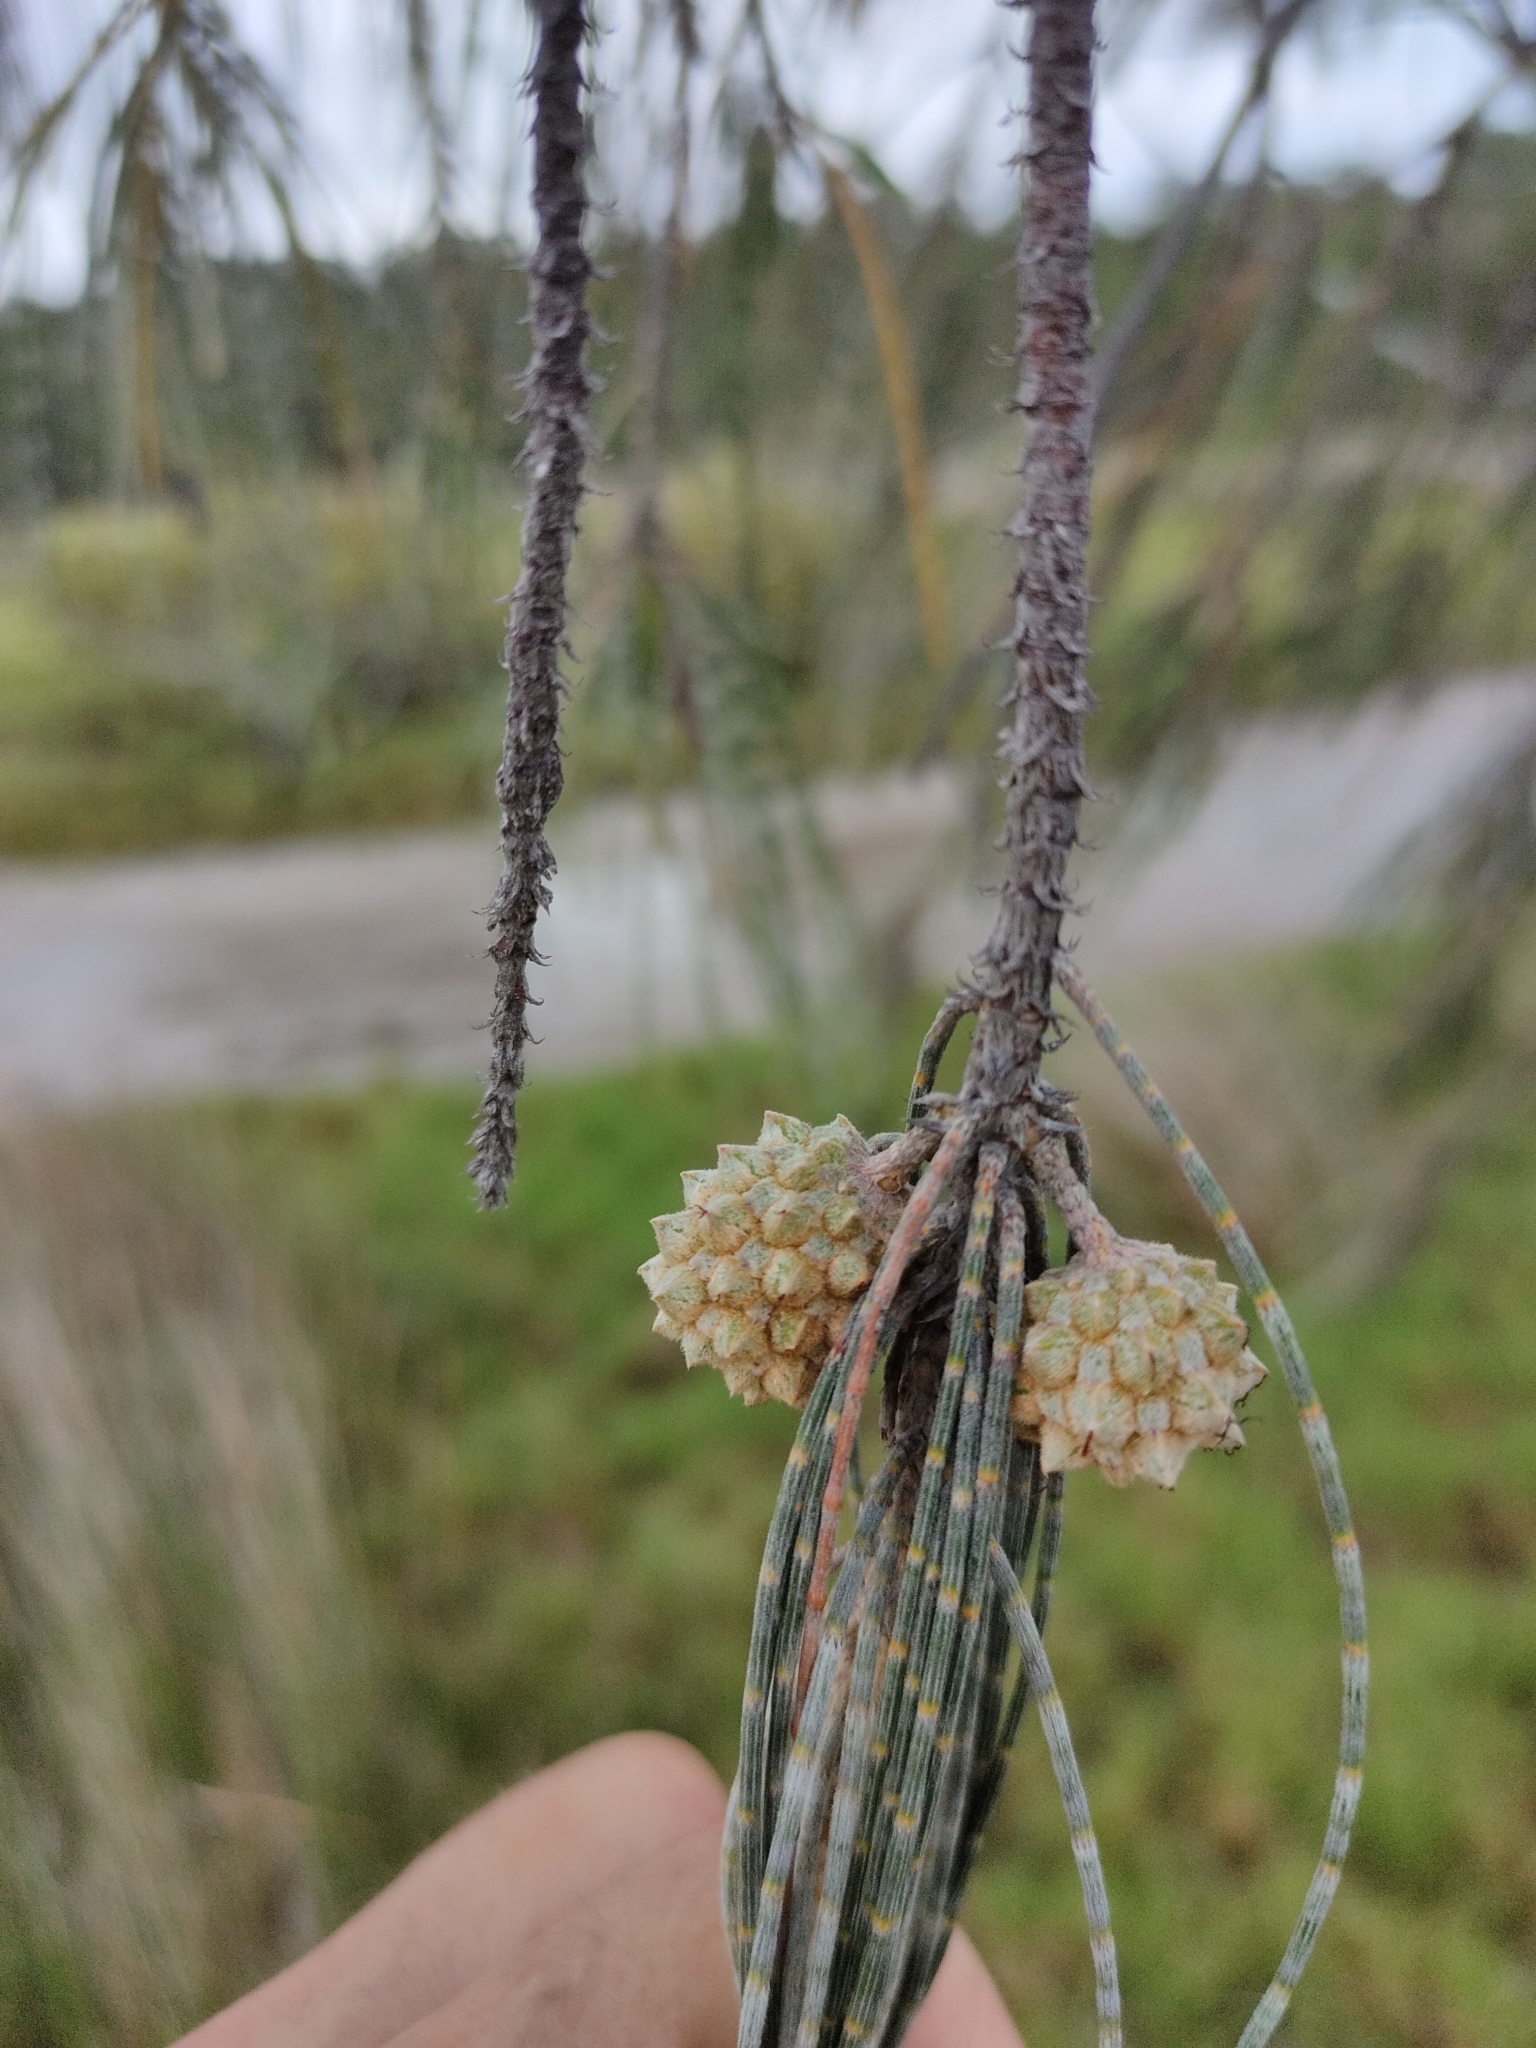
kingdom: Plantae
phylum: Tracheophyta
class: Magnoliopsida
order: Fagales
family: Casuarinaceae
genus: Casuarina
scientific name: Casuarina glauca
